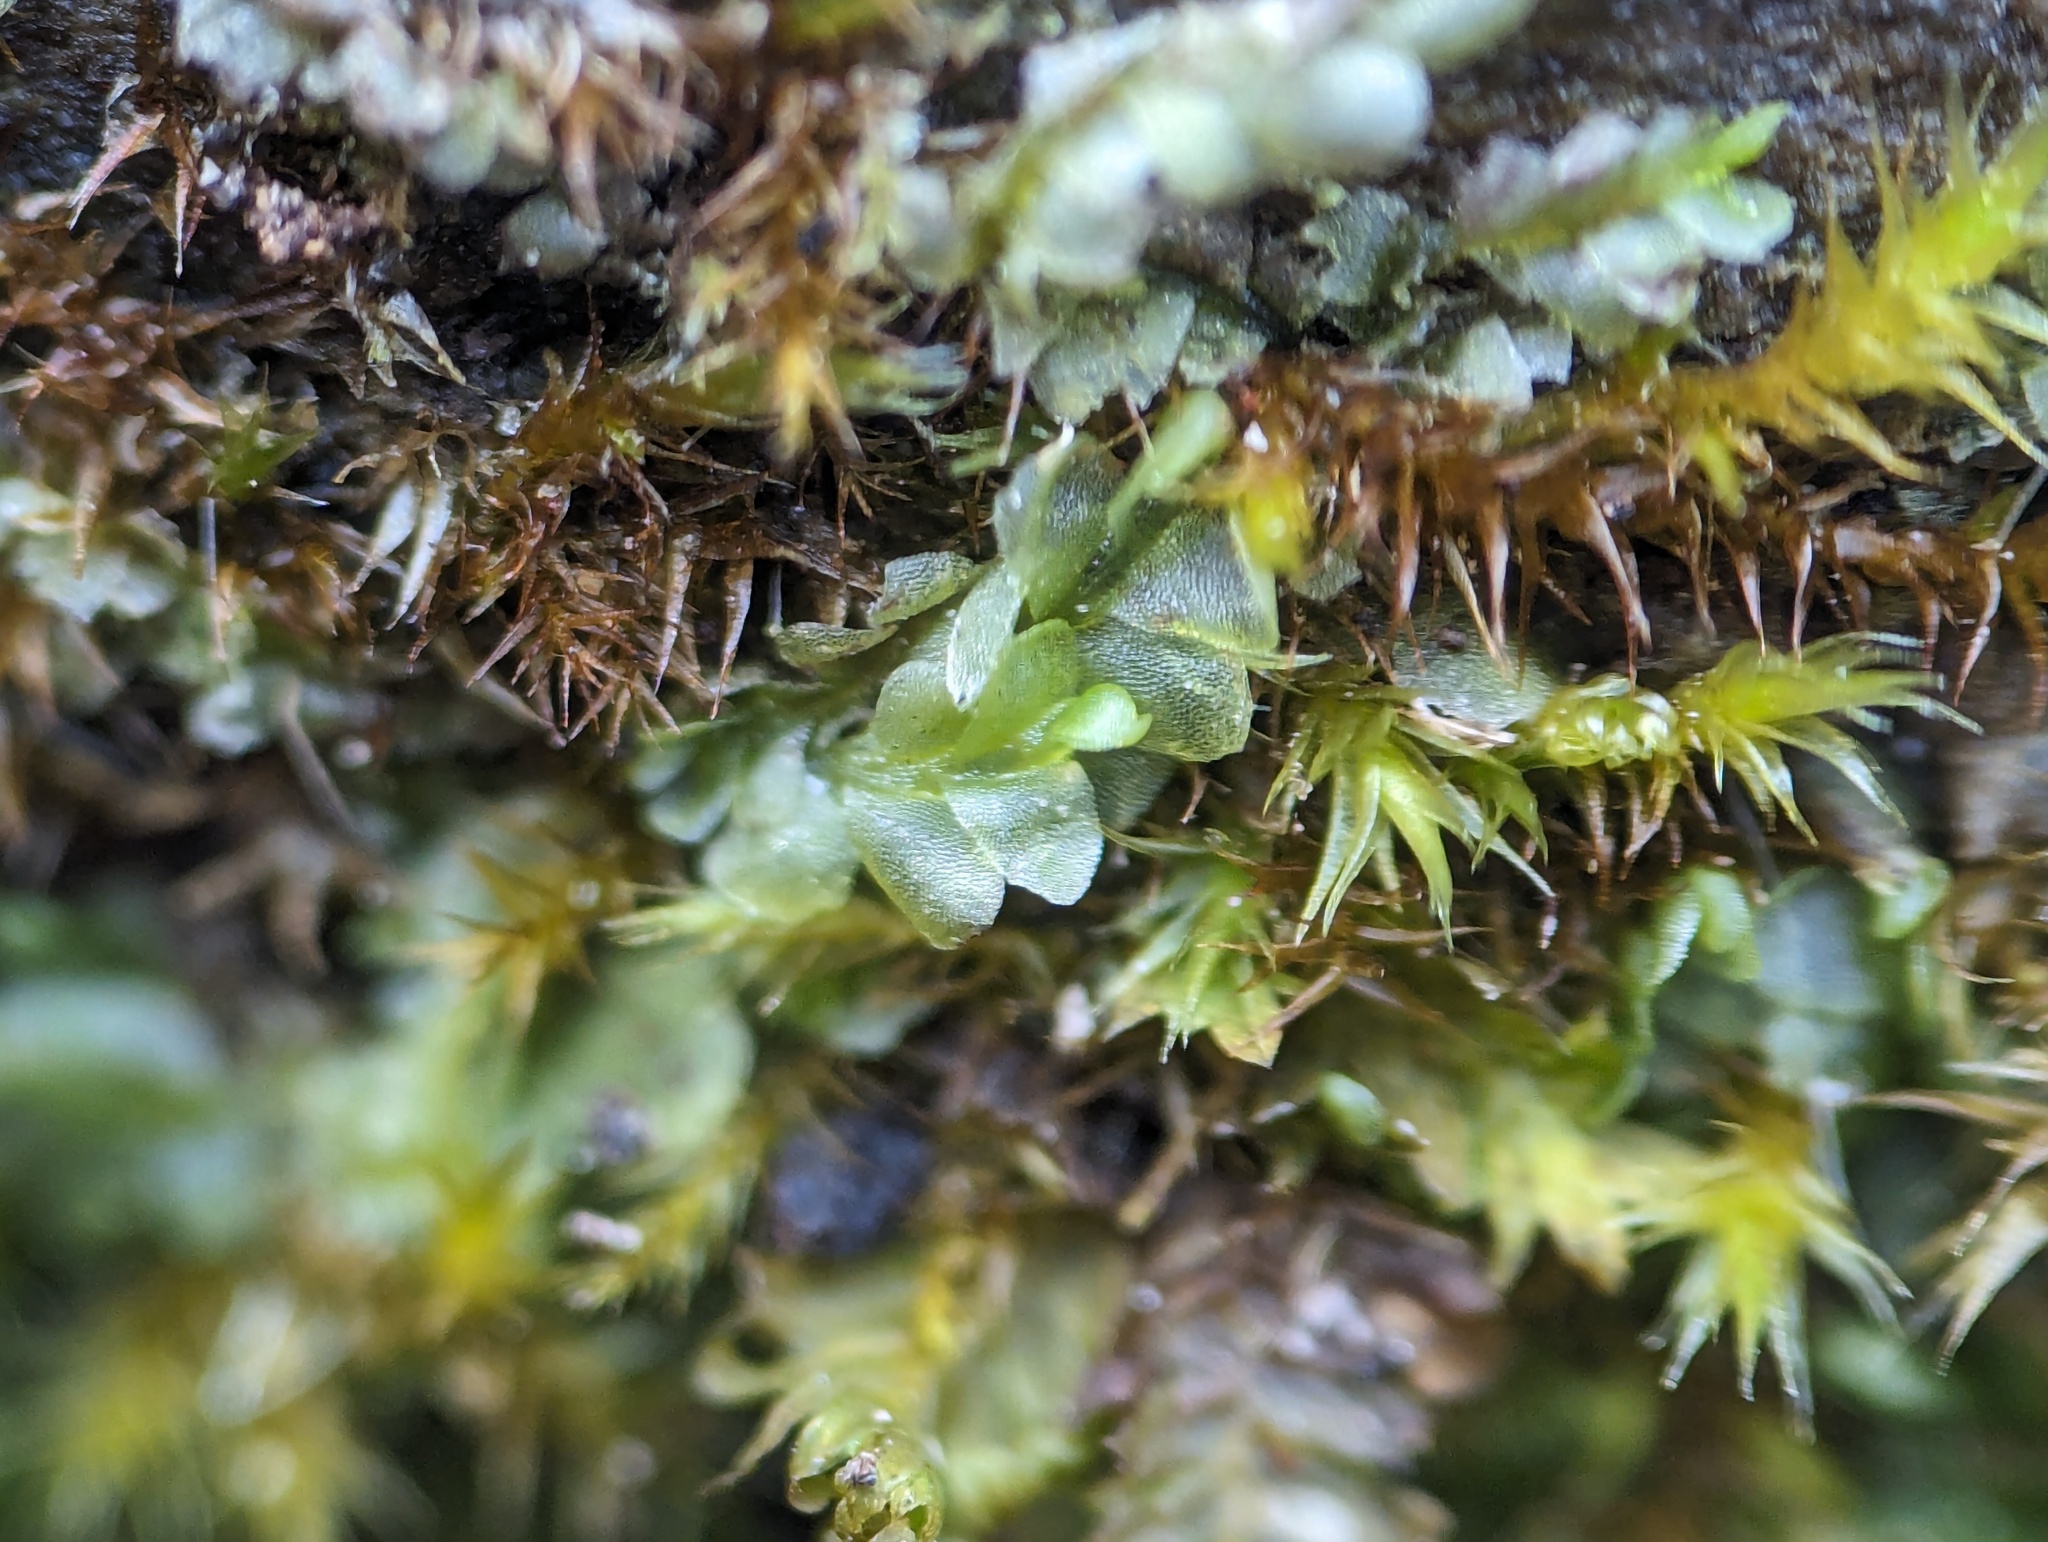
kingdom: Plantae
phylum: Marchantiophyta
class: Jungermanniopsida
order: Jungermanniales
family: Lophocoleaceae
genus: Chiloscyphus
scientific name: Chiloscyphus pallescens
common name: St winifrid's other moss
